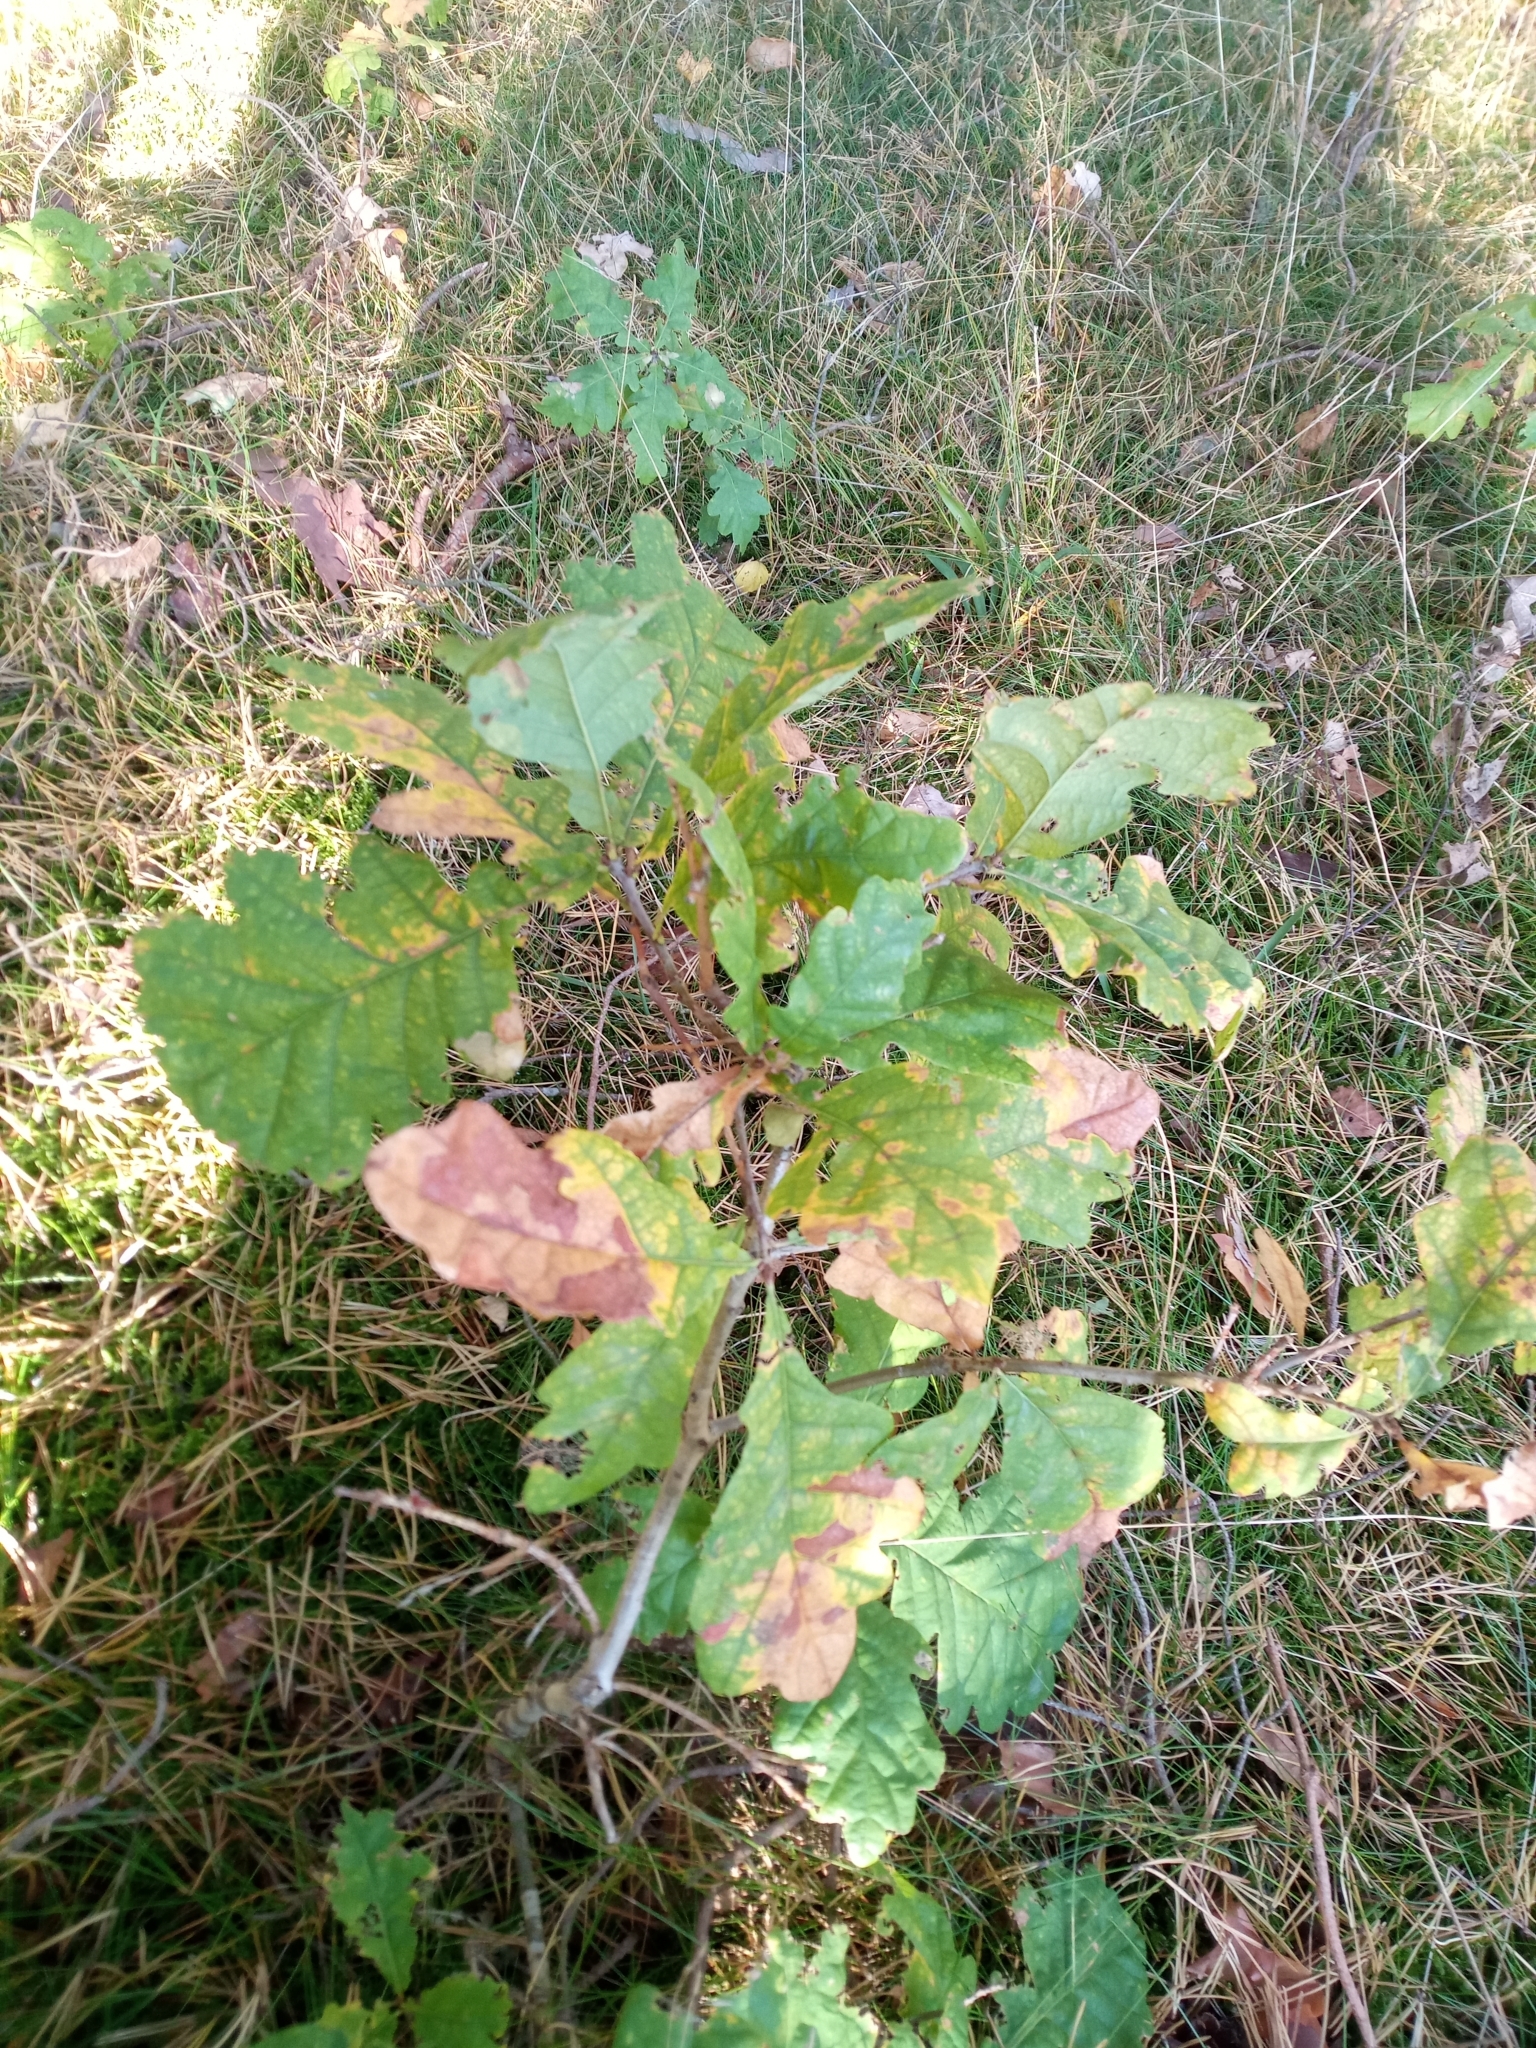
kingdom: Plantae
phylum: Tracheophyta
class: Magnoliopsida
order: Fagales
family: Fagaceae
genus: Quercus
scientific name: Quercus robur
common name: Pedunculate oak
